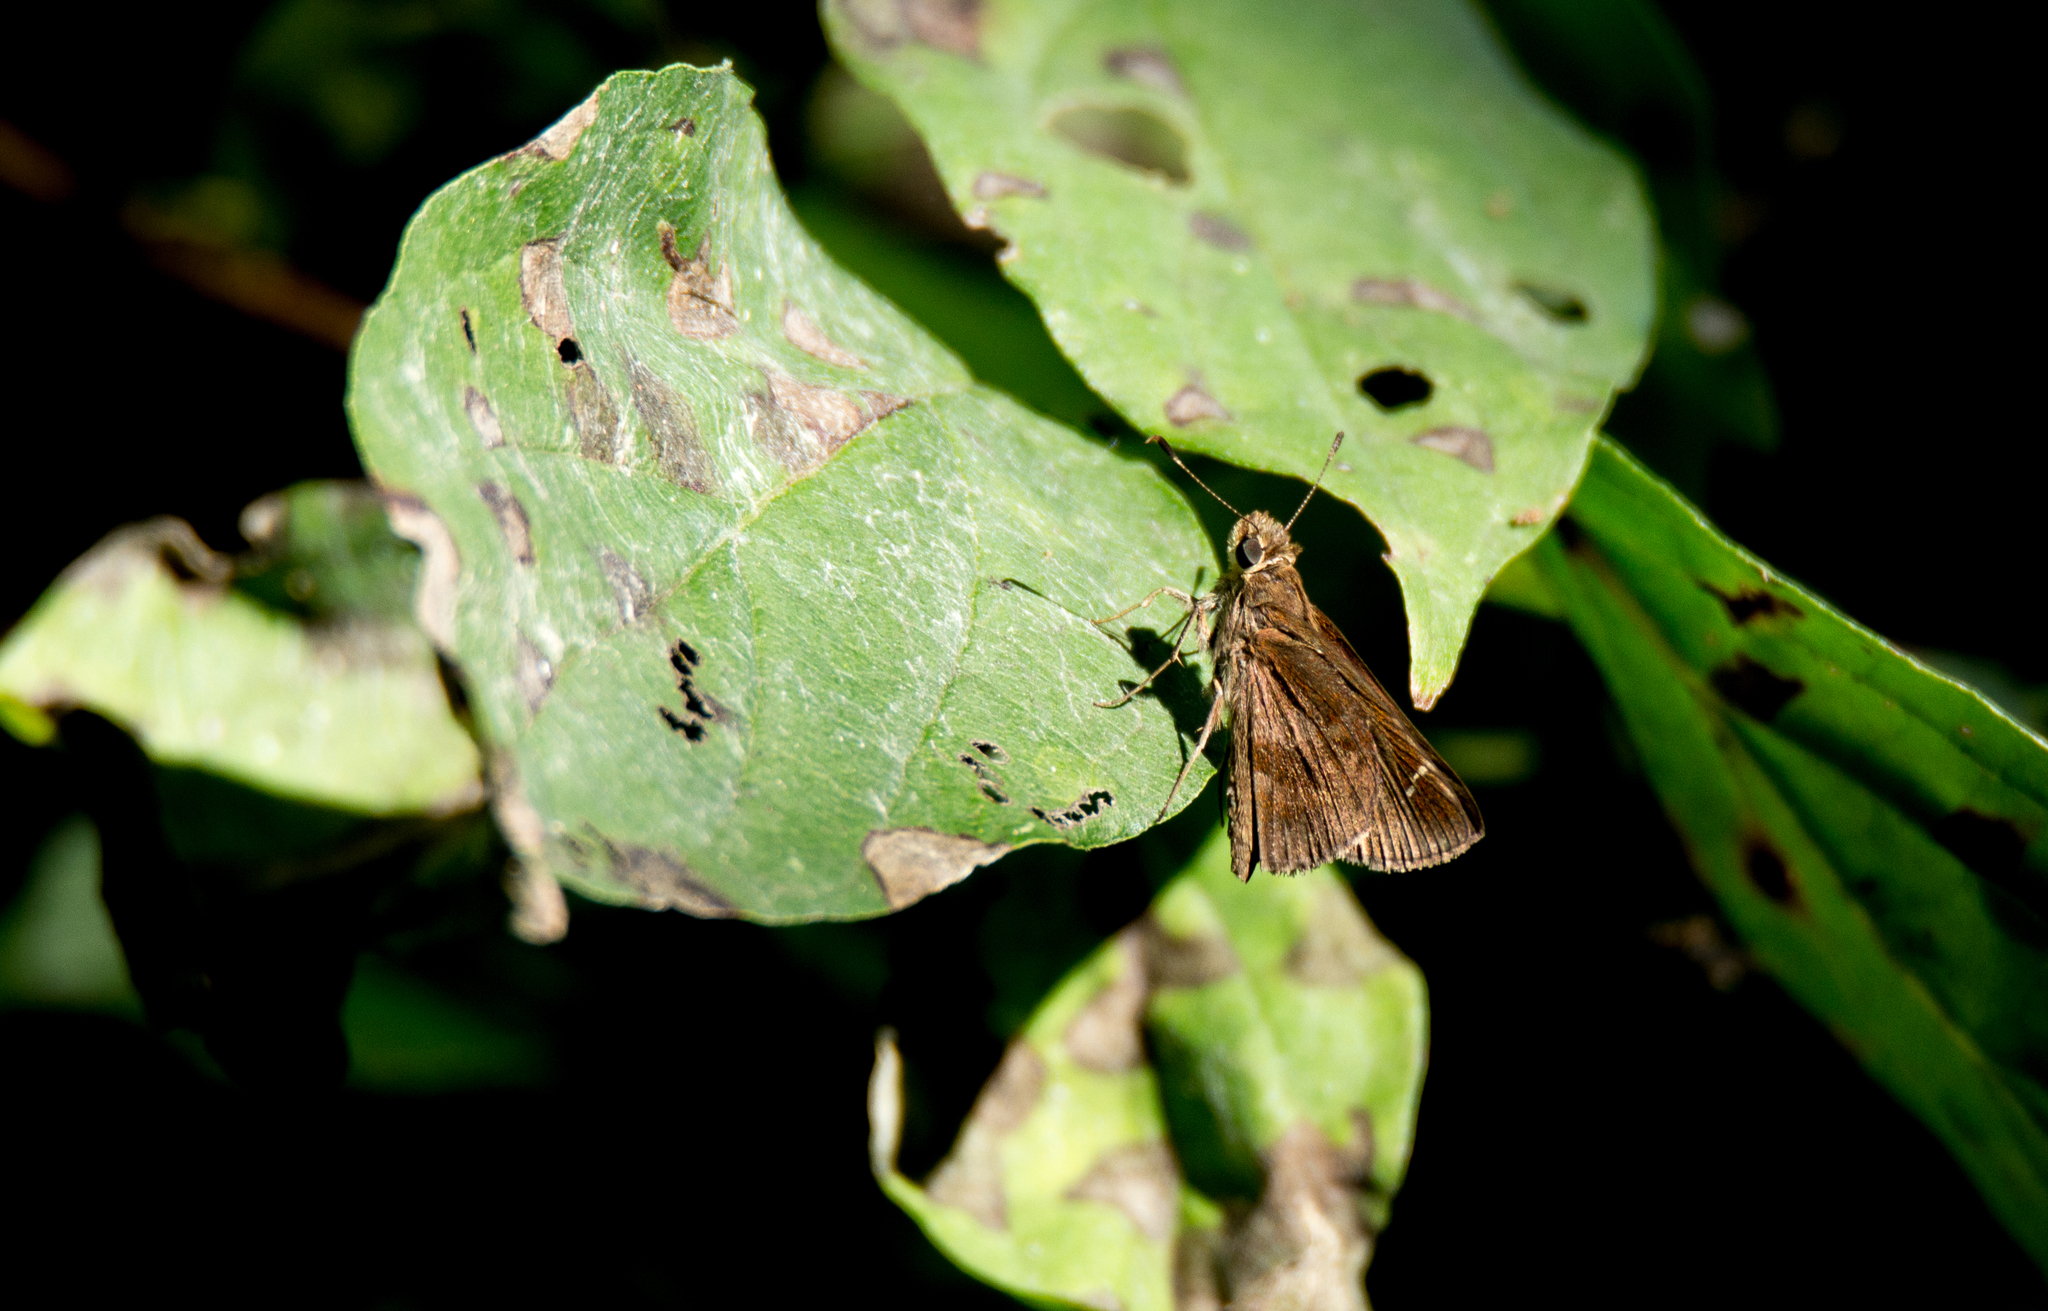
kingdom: Animalia
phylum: Arthropoda
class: Insecta
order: Lepidoptera
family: Hesperiidae
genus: Lerema
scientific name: Lerema accius
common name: Clouded skipper
